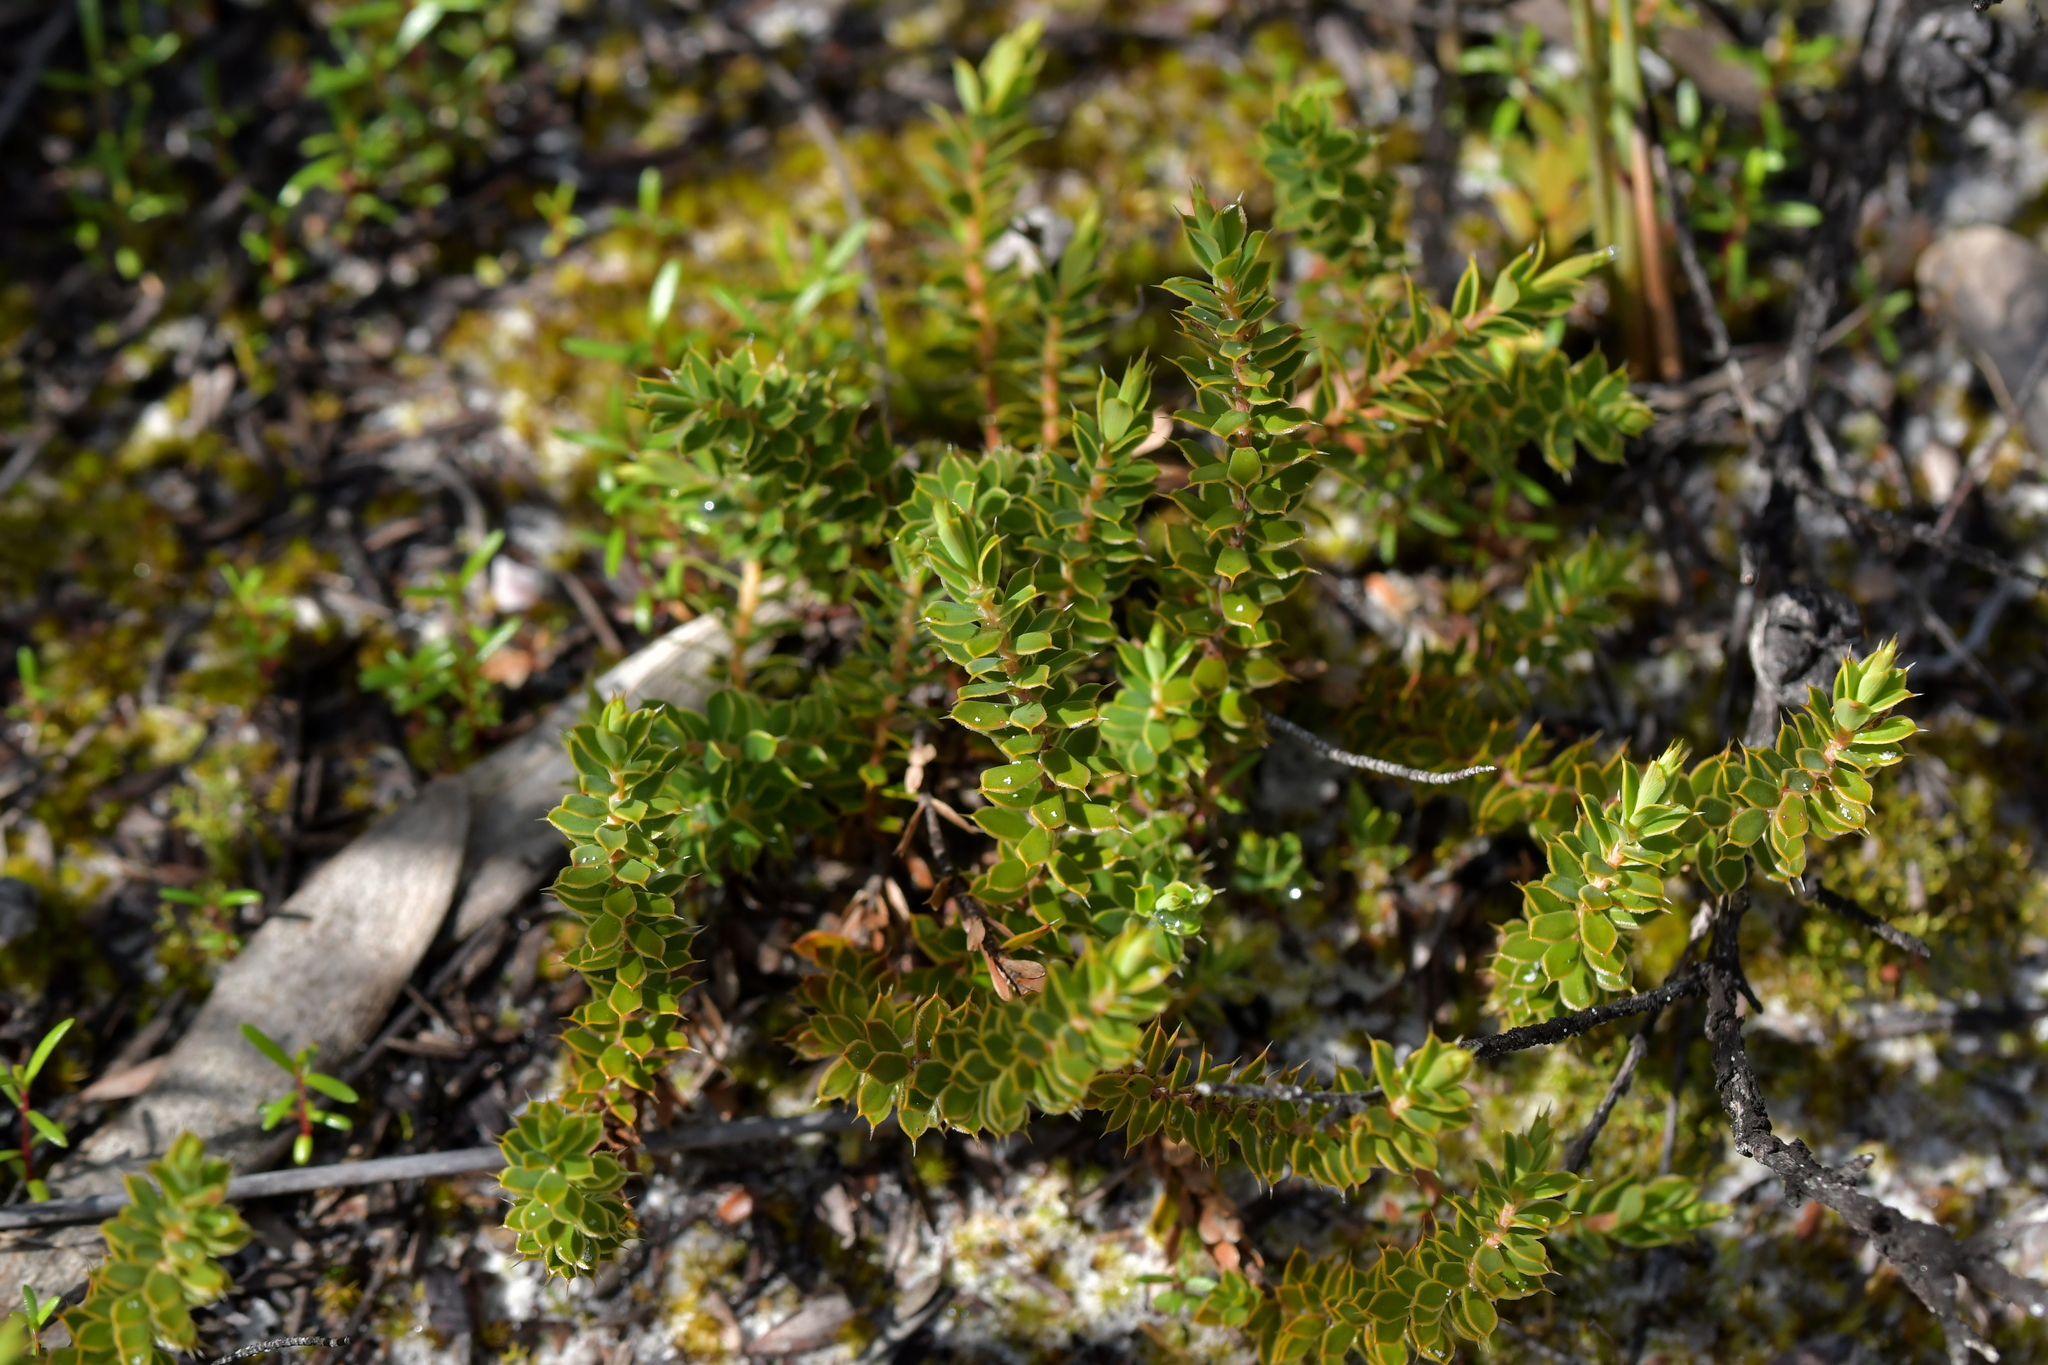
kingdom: Plantae
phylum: Tracheophyta
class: Magnoliopsida
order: Ericales
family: Ericaceae
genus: Styphelia
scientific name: Styphelia nesophila
